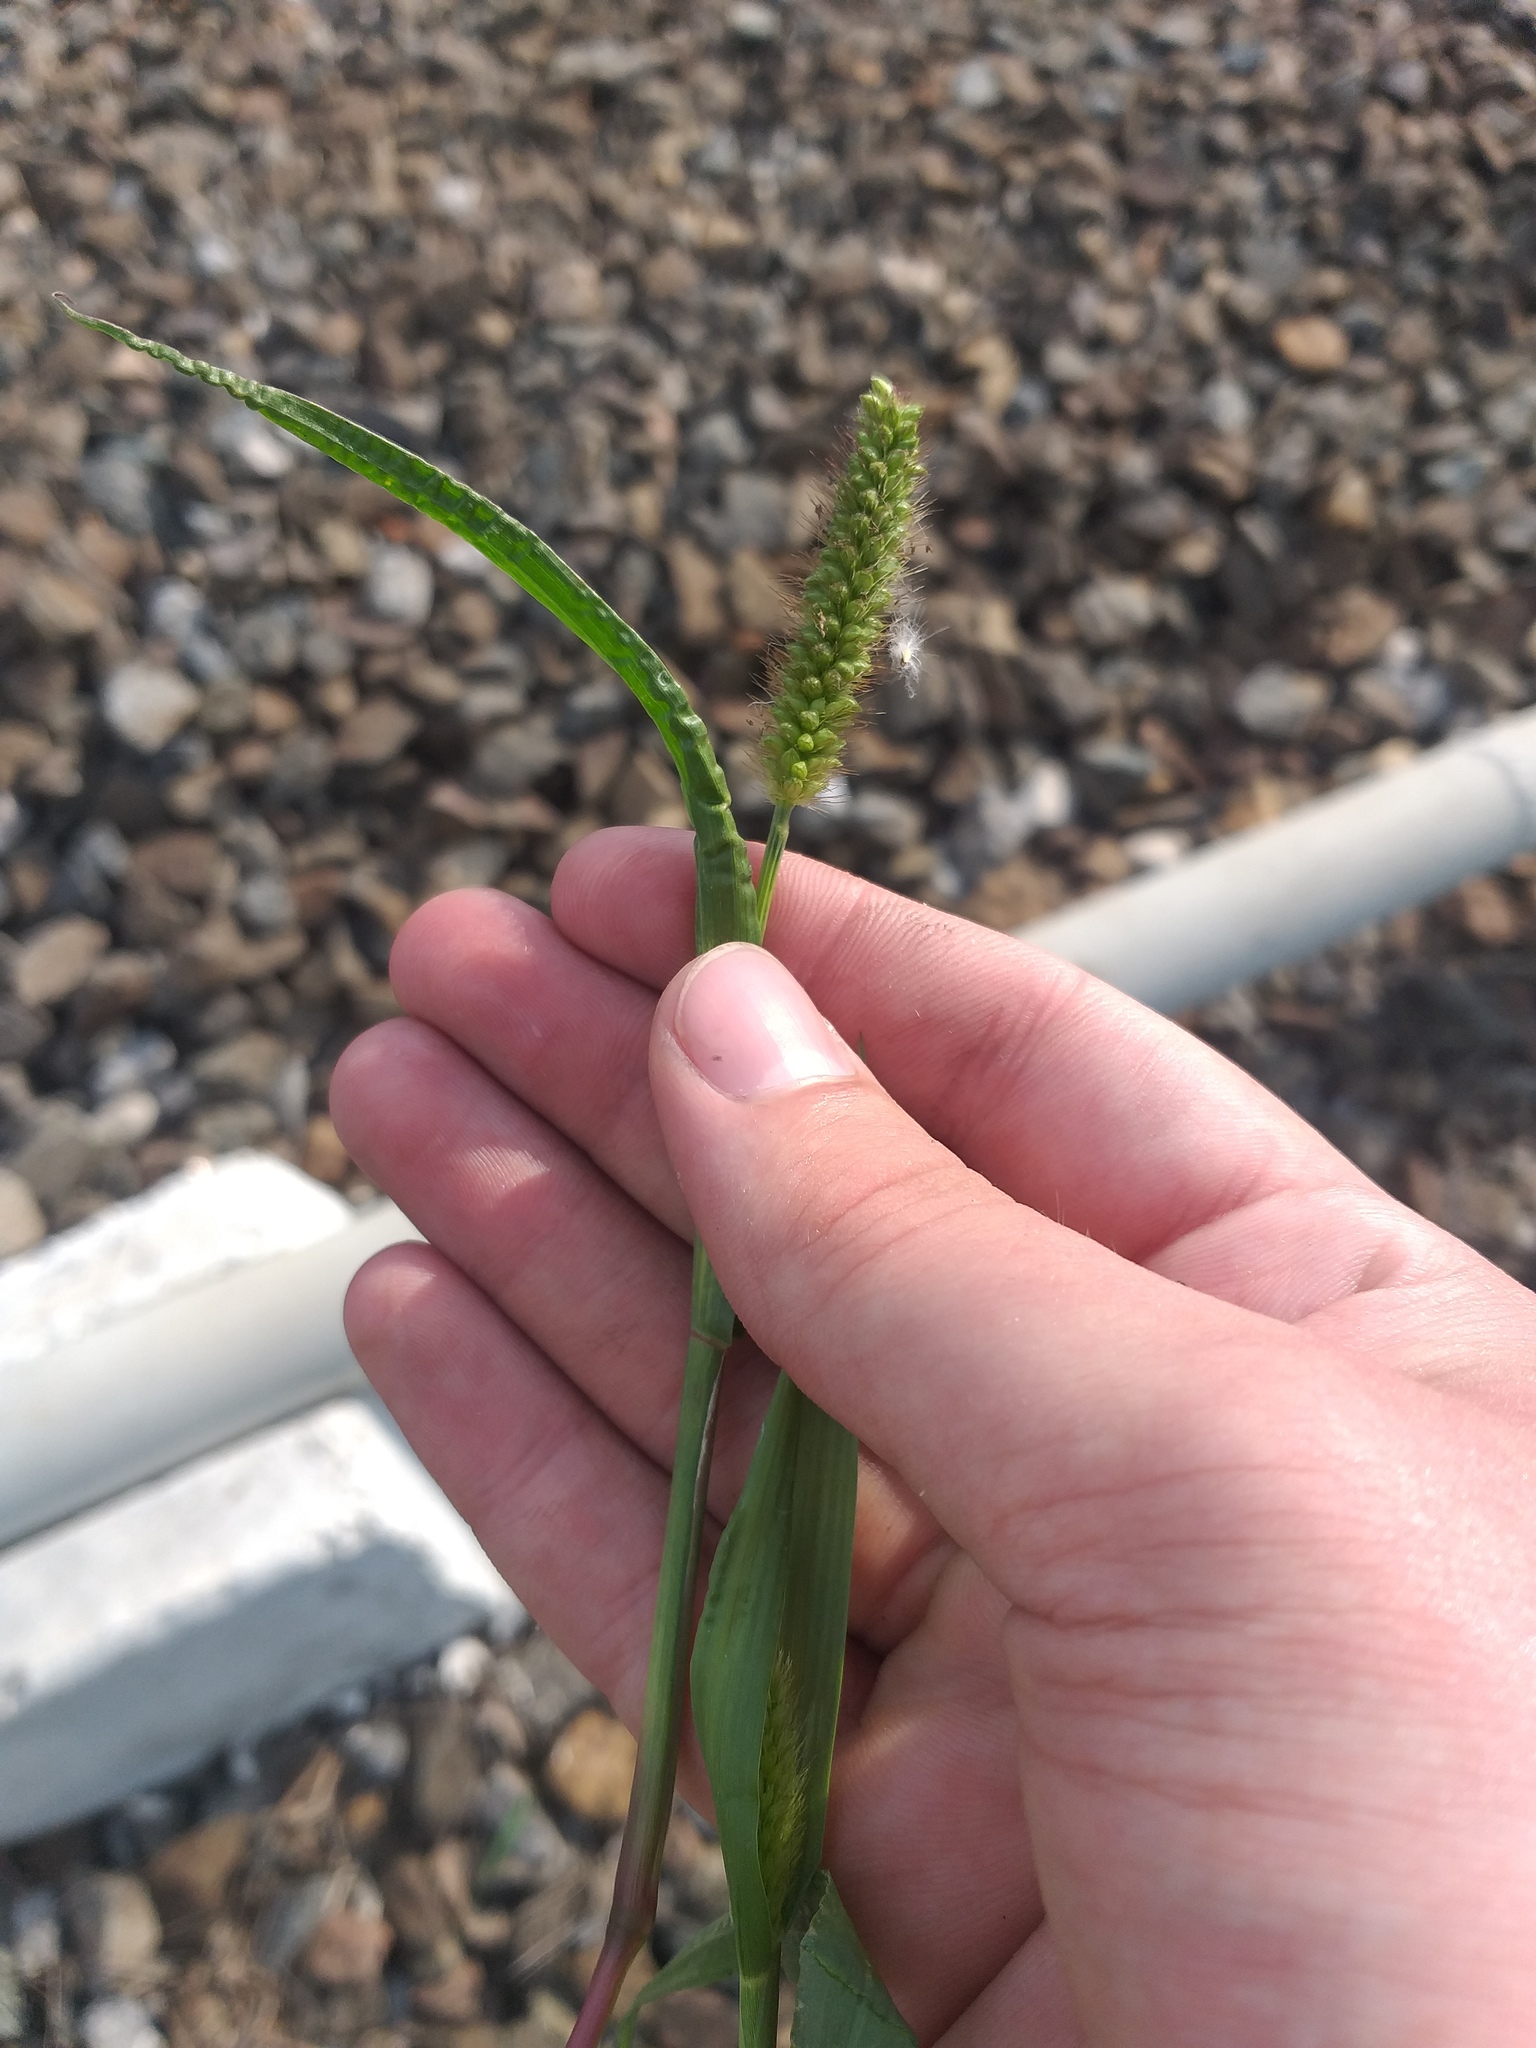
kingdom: Plantae
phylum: Tracheophyta
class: Liliopsida
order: Poales
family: Poaceae
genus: Setaria
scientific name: Setaria pumila
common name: Yellow bristle-grass
